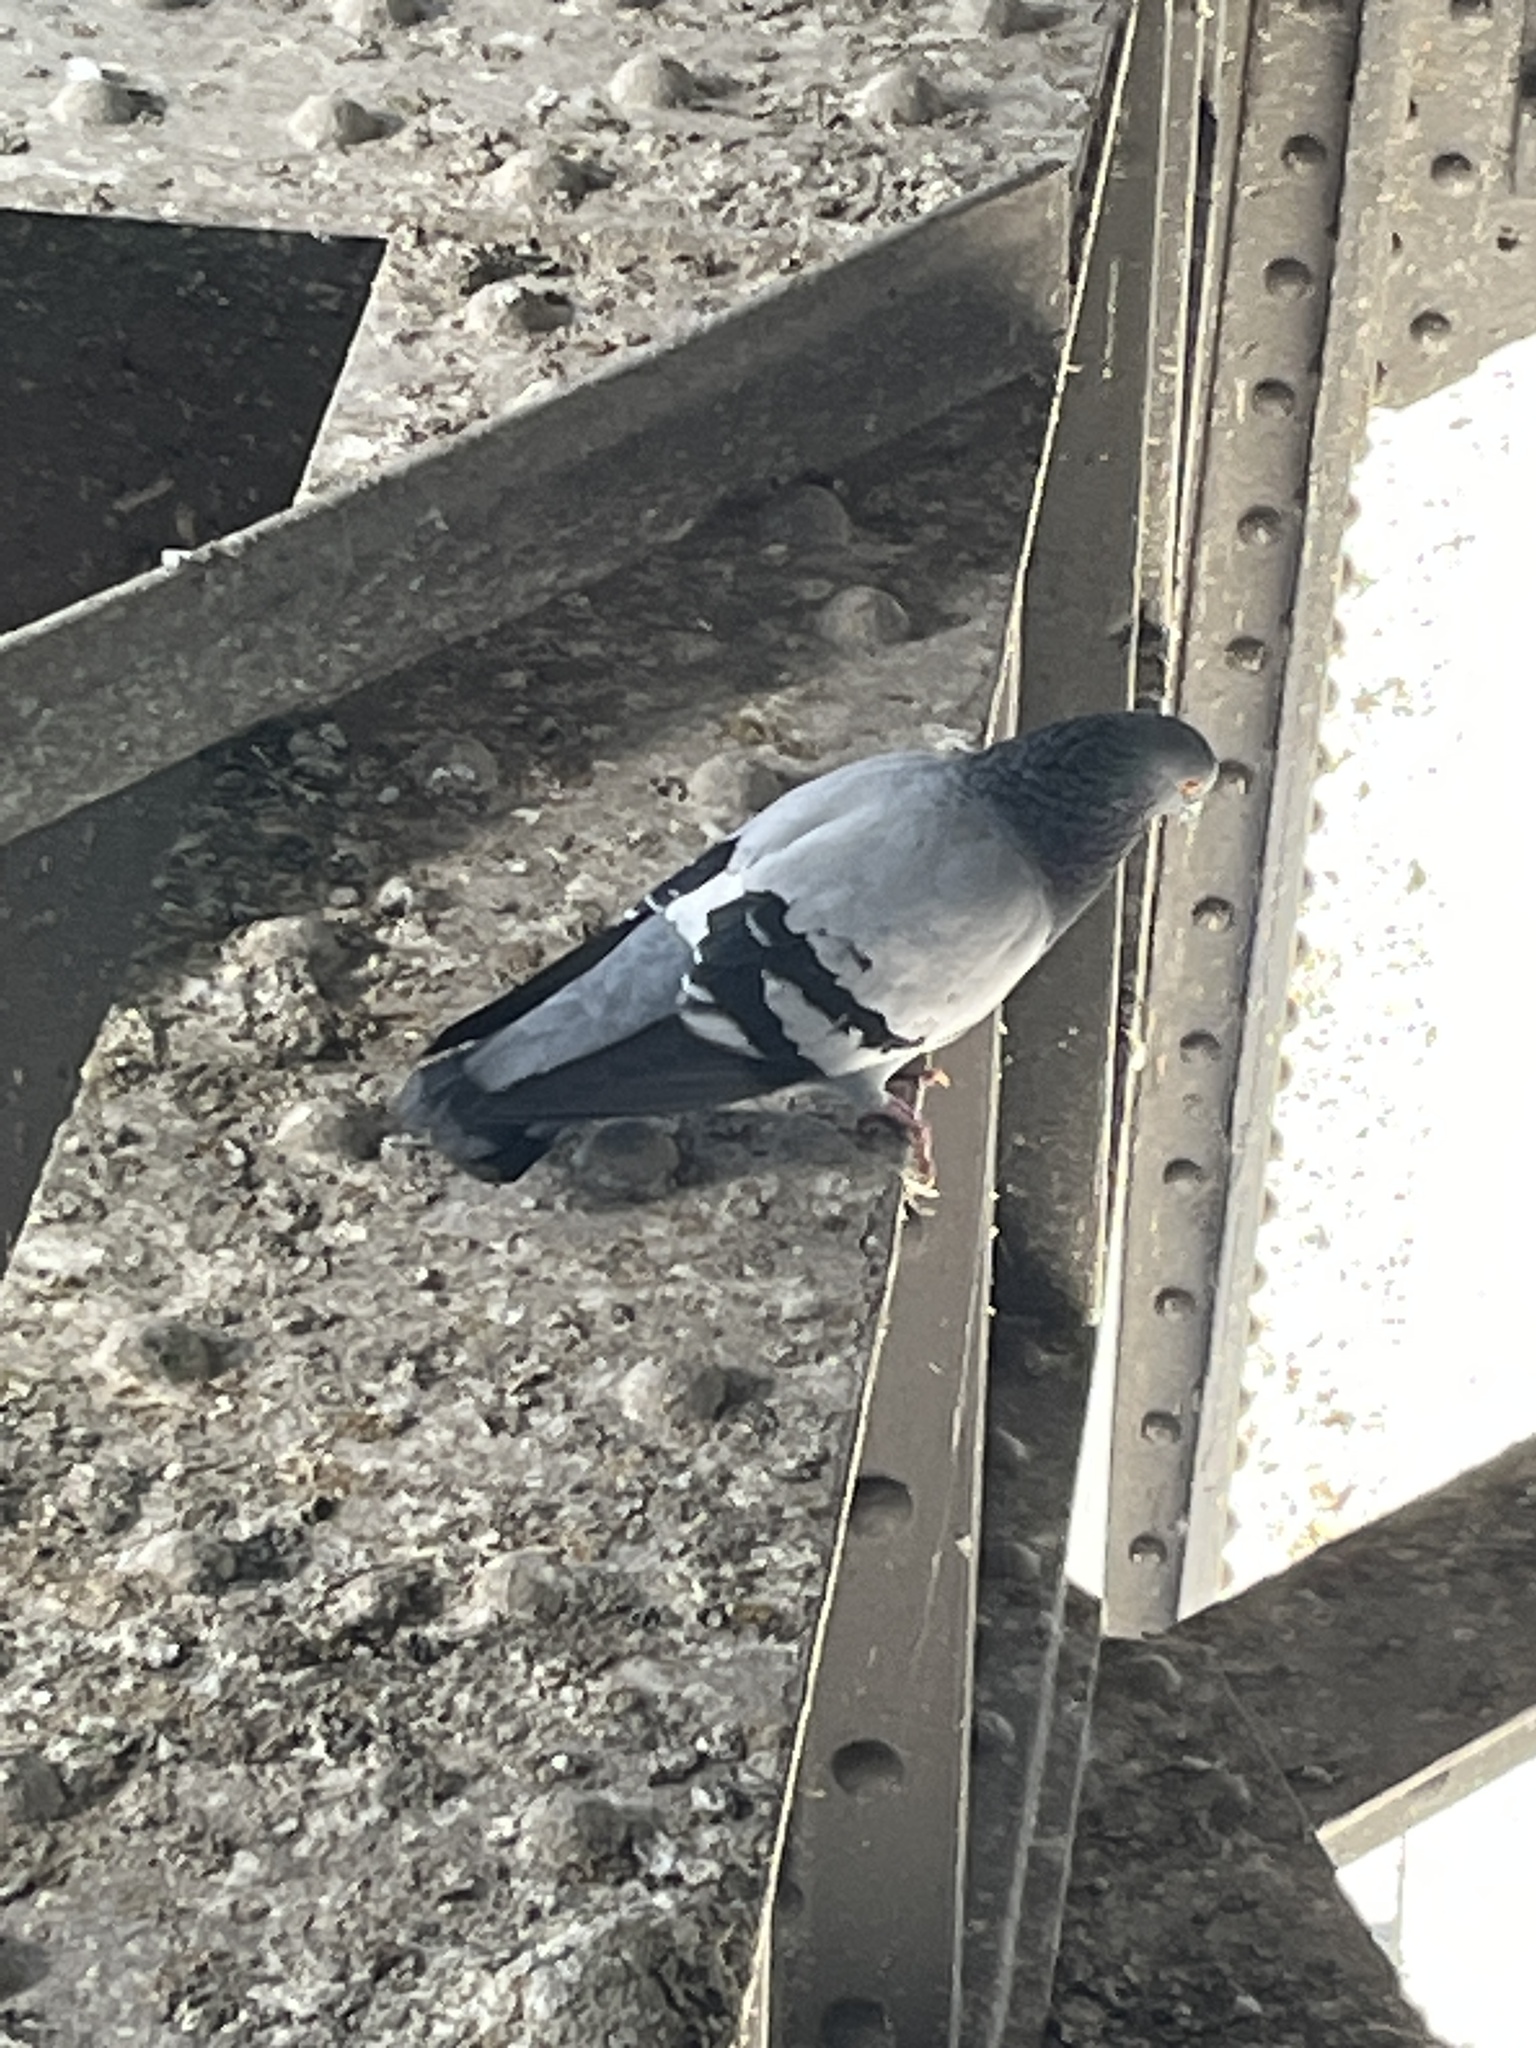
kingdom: Animalia
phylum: Chordata
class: Aves
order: Columbiformes
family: Columbidae
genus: Columba
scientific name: Columba livia
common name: Rock pigeon
